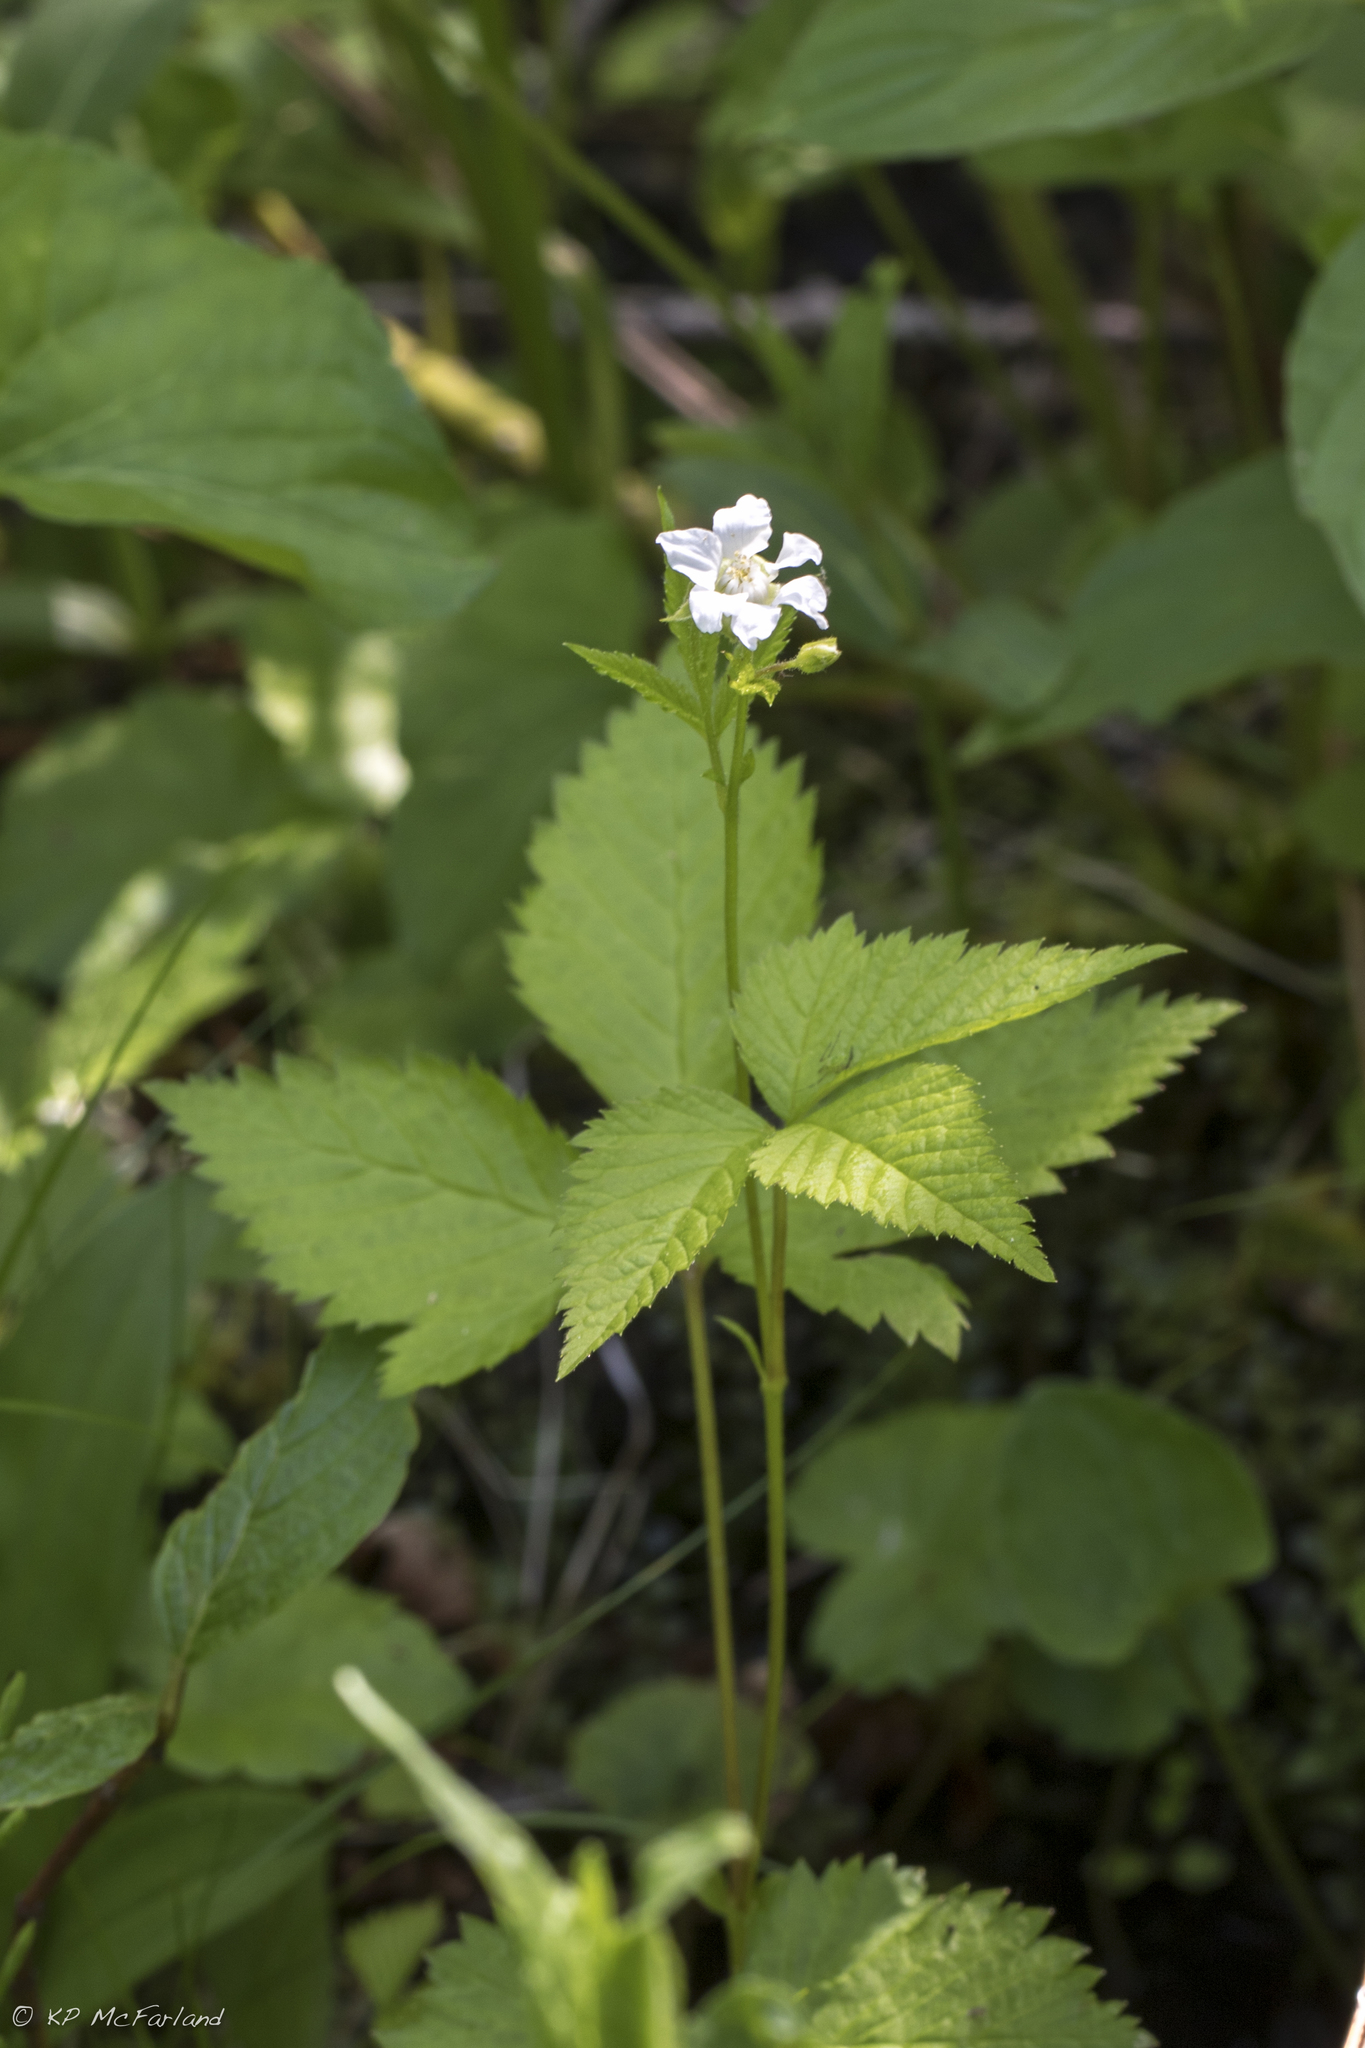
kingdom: Plantae
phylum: Tracheophyta
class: Magnoliopsida
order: Rosales
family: Rosaceae
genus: Rubus
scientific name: Rubus pubescens
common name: Dwarf raspberry
